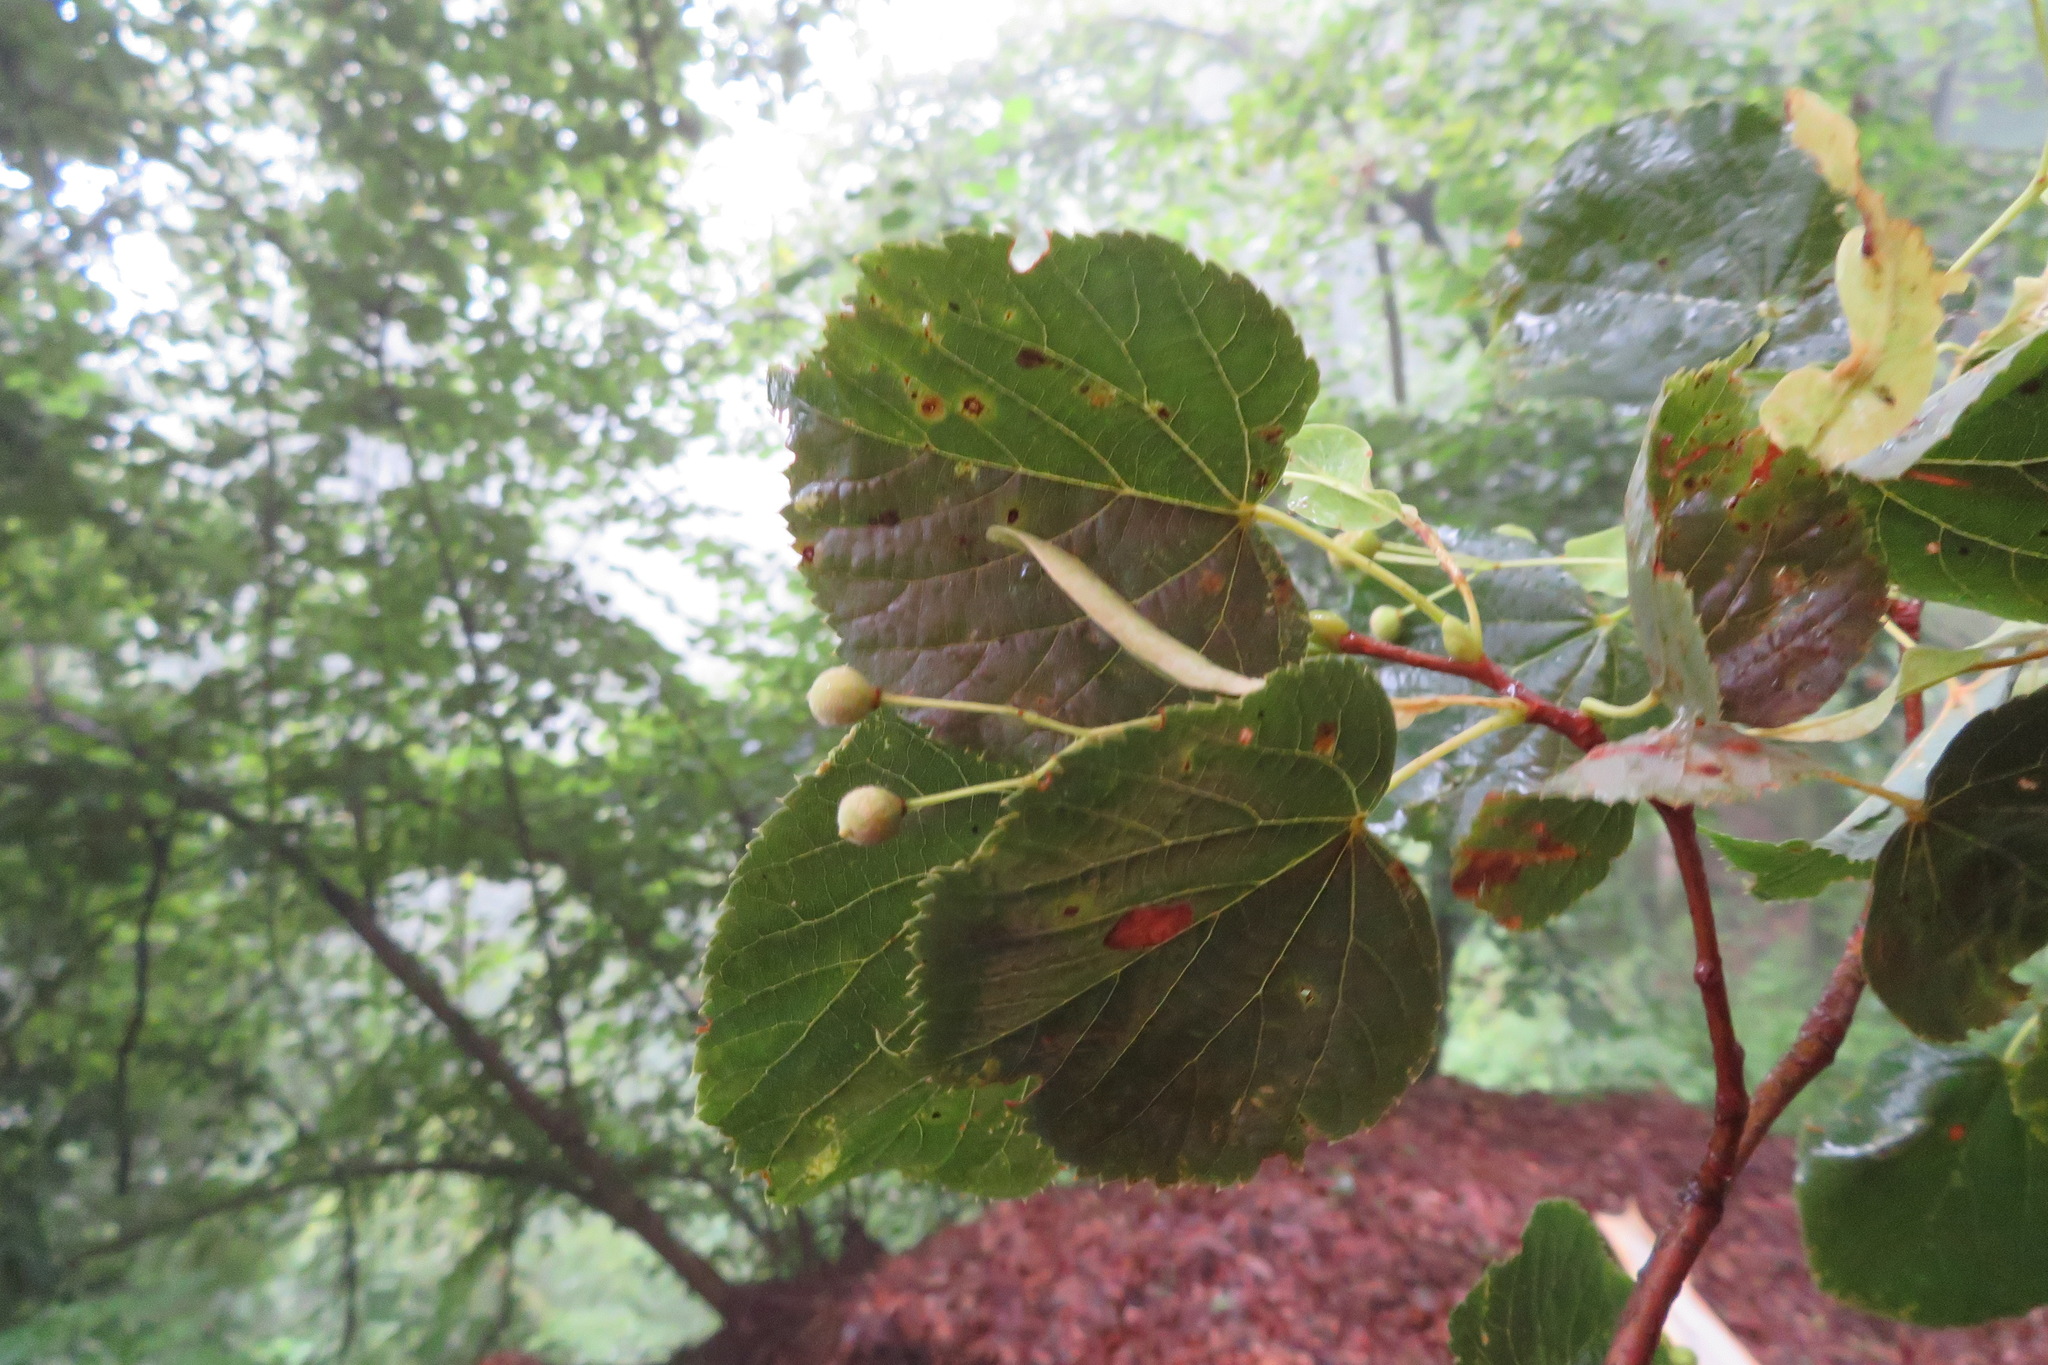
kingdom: Plantae
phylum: Tracheophyta
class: Magnoliopsida
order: Malvales
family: Malvaceae
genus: Tilia
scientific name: Tilia cordata
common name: Small-leaved lime
